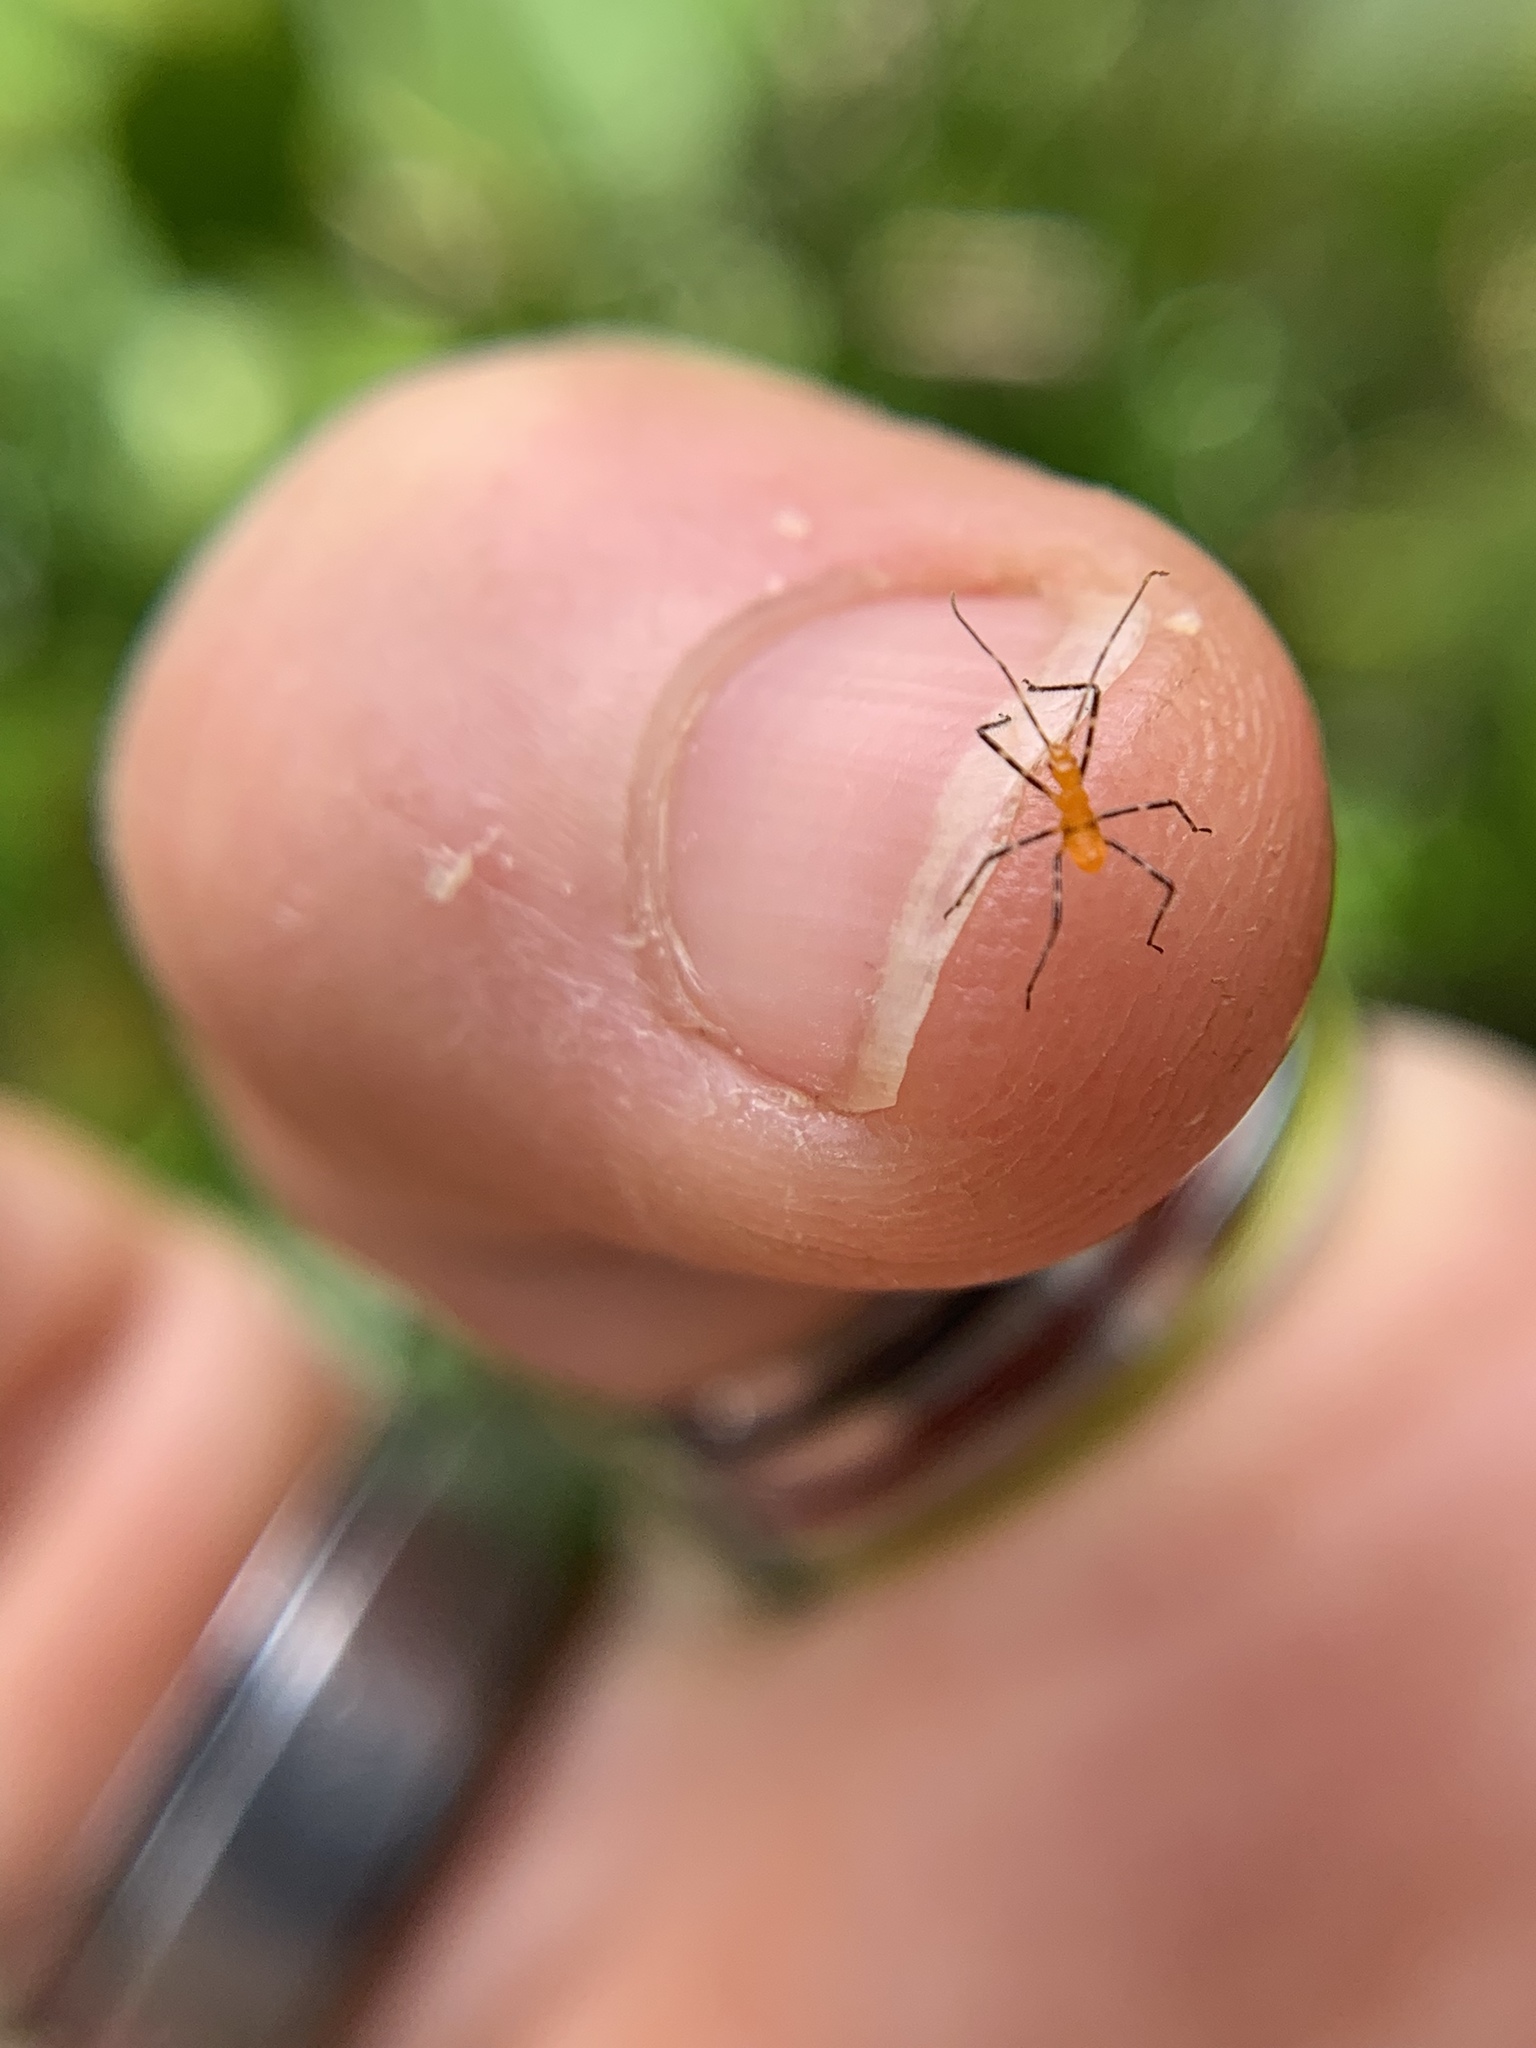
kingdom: Animalia
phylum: Arthropoda
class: Insecta
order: Hemiptera
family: Reduviidae
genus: Zelus
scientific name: Zelus longipes
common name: Milkweed assassin bug
